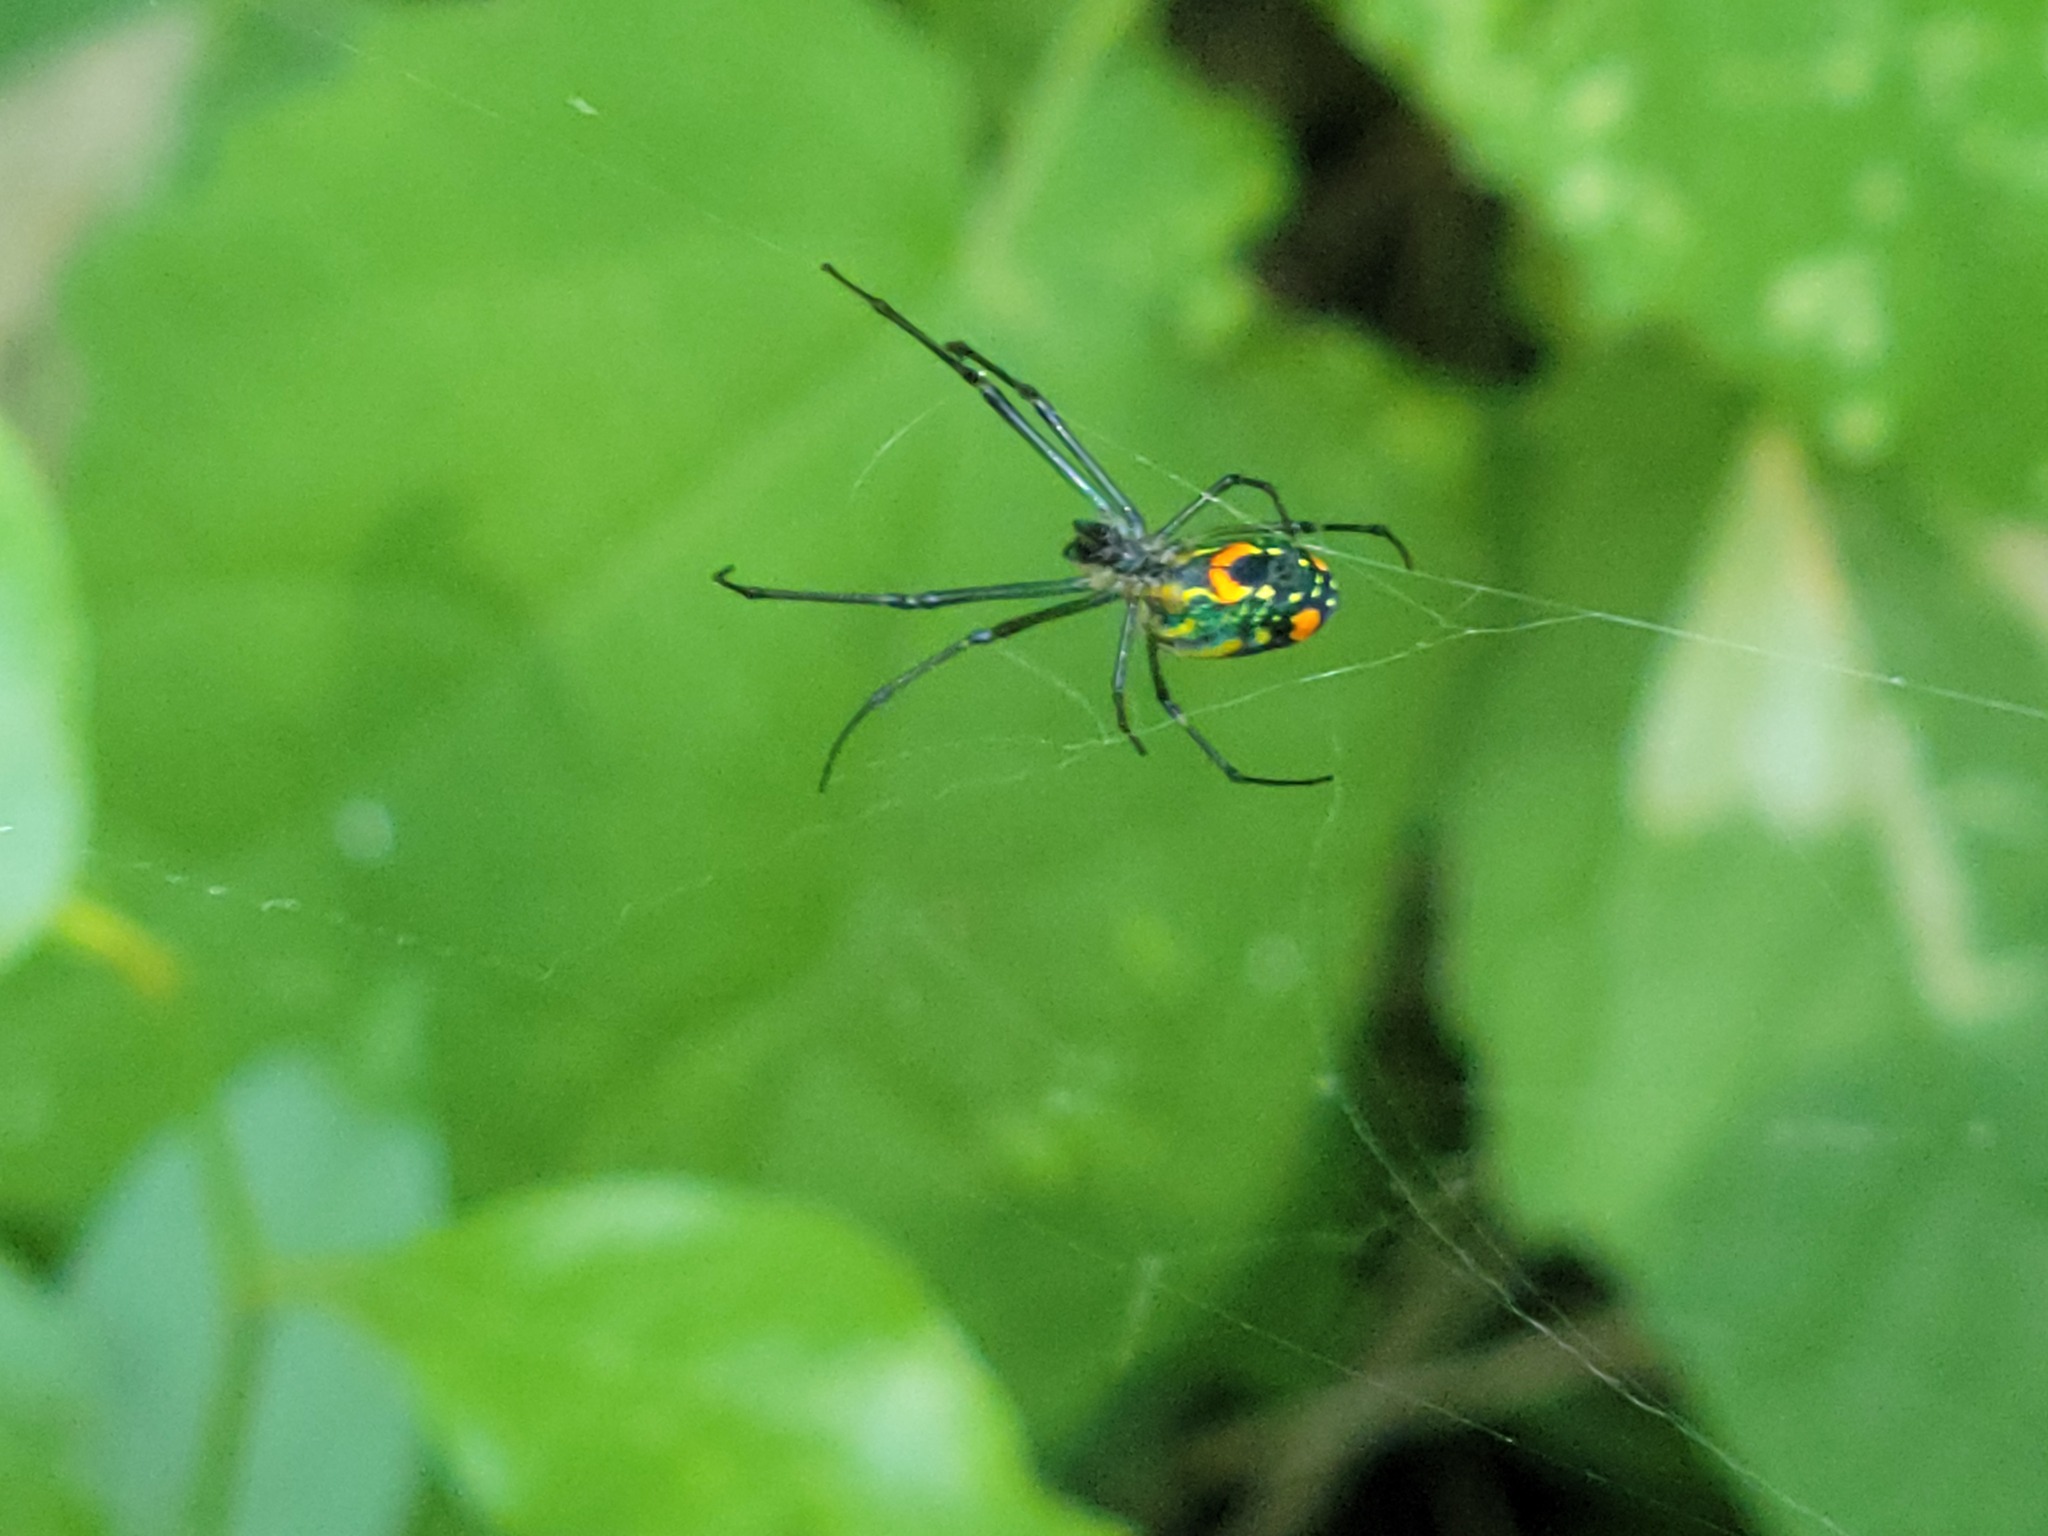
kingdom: Animalia
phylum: Arthropoda
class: Arachnida
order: Araneae
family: Tetragnathidae
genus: Leucauge
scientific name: Leucauge argyrobapta
